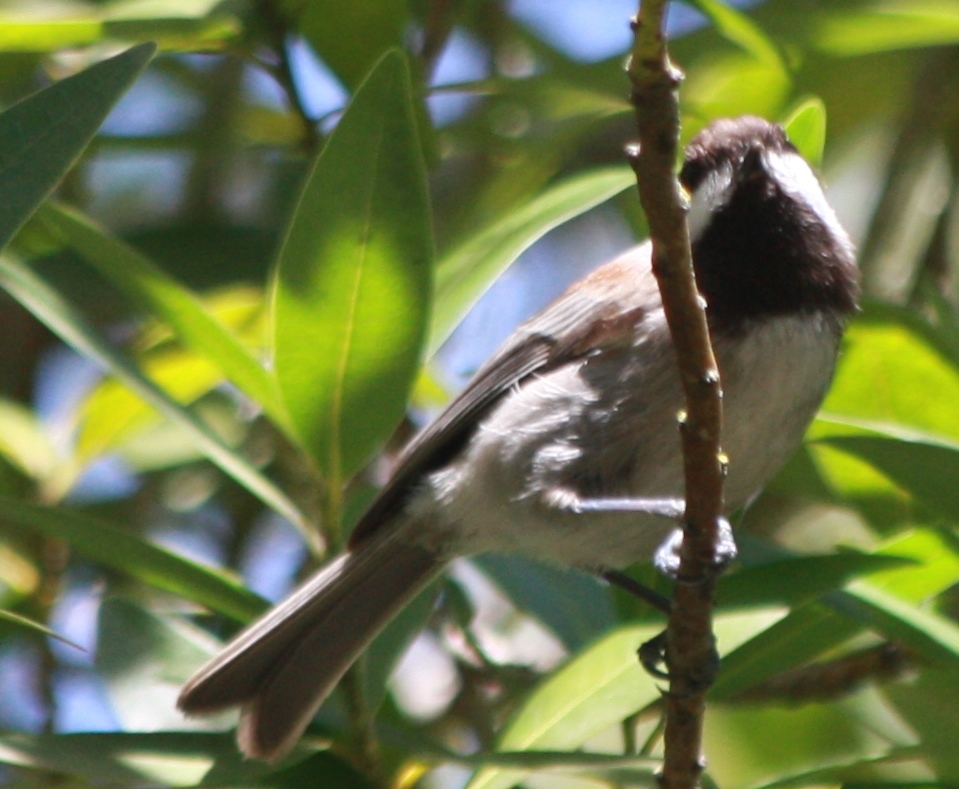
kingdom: Animalia
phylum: Chordata
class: Aves
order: Passeriformes
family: Paridae
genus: Poecile
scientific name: Poecile rufescens
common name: Chestnut-backed chickadee
